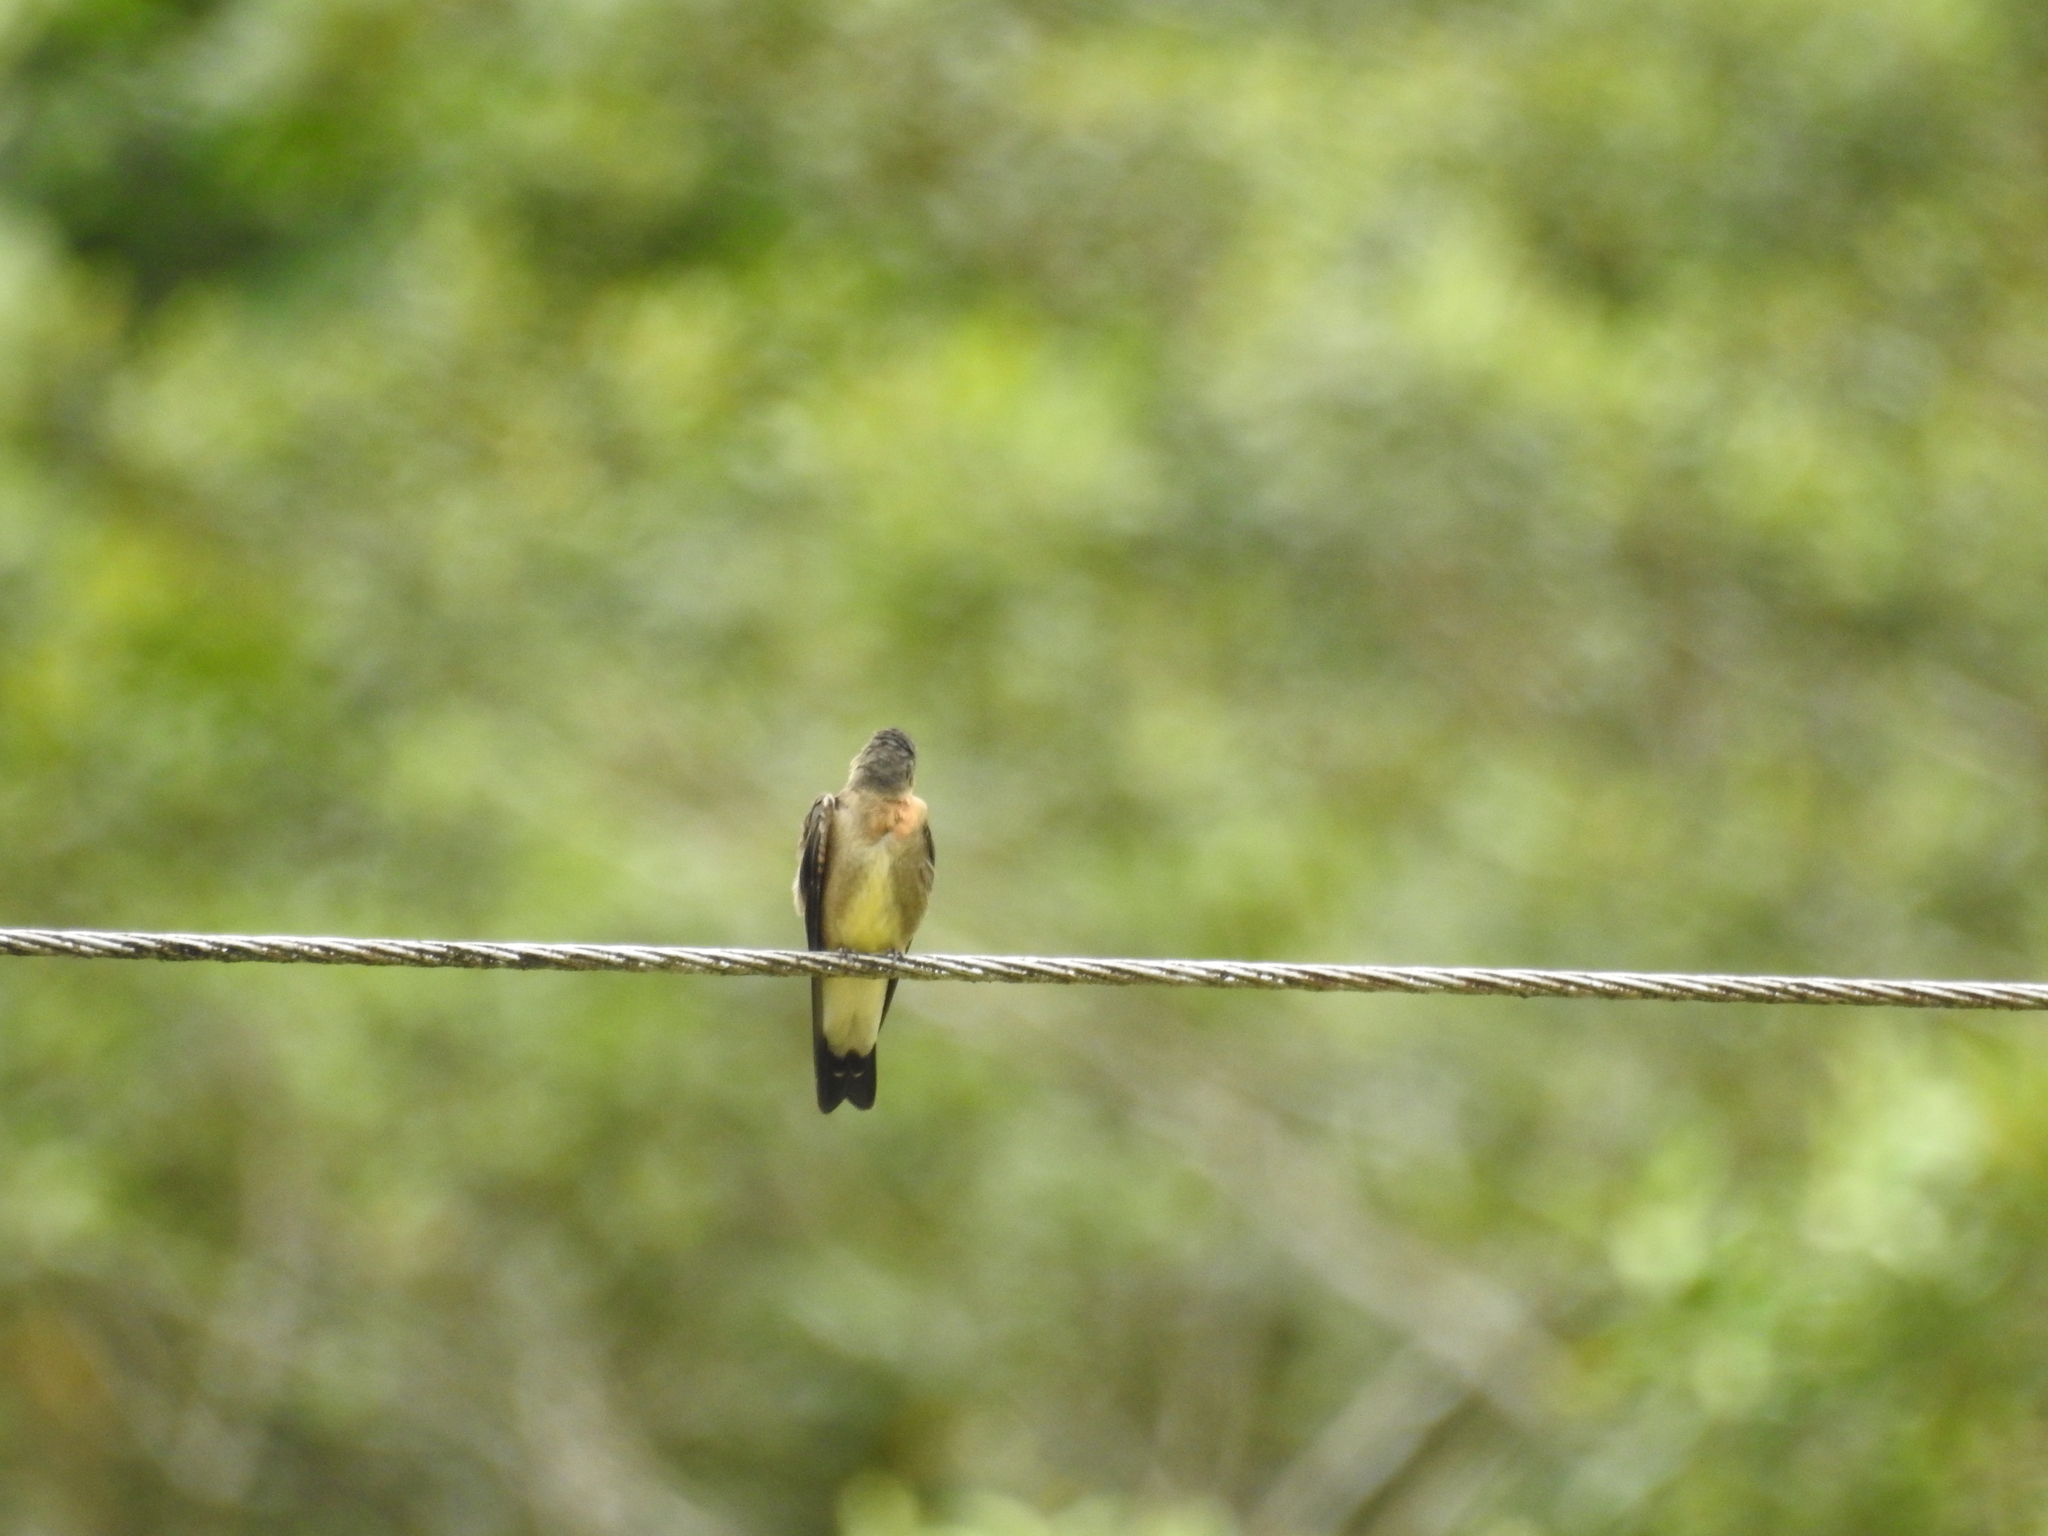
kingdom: Animalia
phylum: Chordata
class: Aves
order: Passeriformes
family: Hirundinidae
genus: Stelgidopteryx
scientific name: Stelgidopteryx ruficollis
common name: Southern rough-winged swallow
